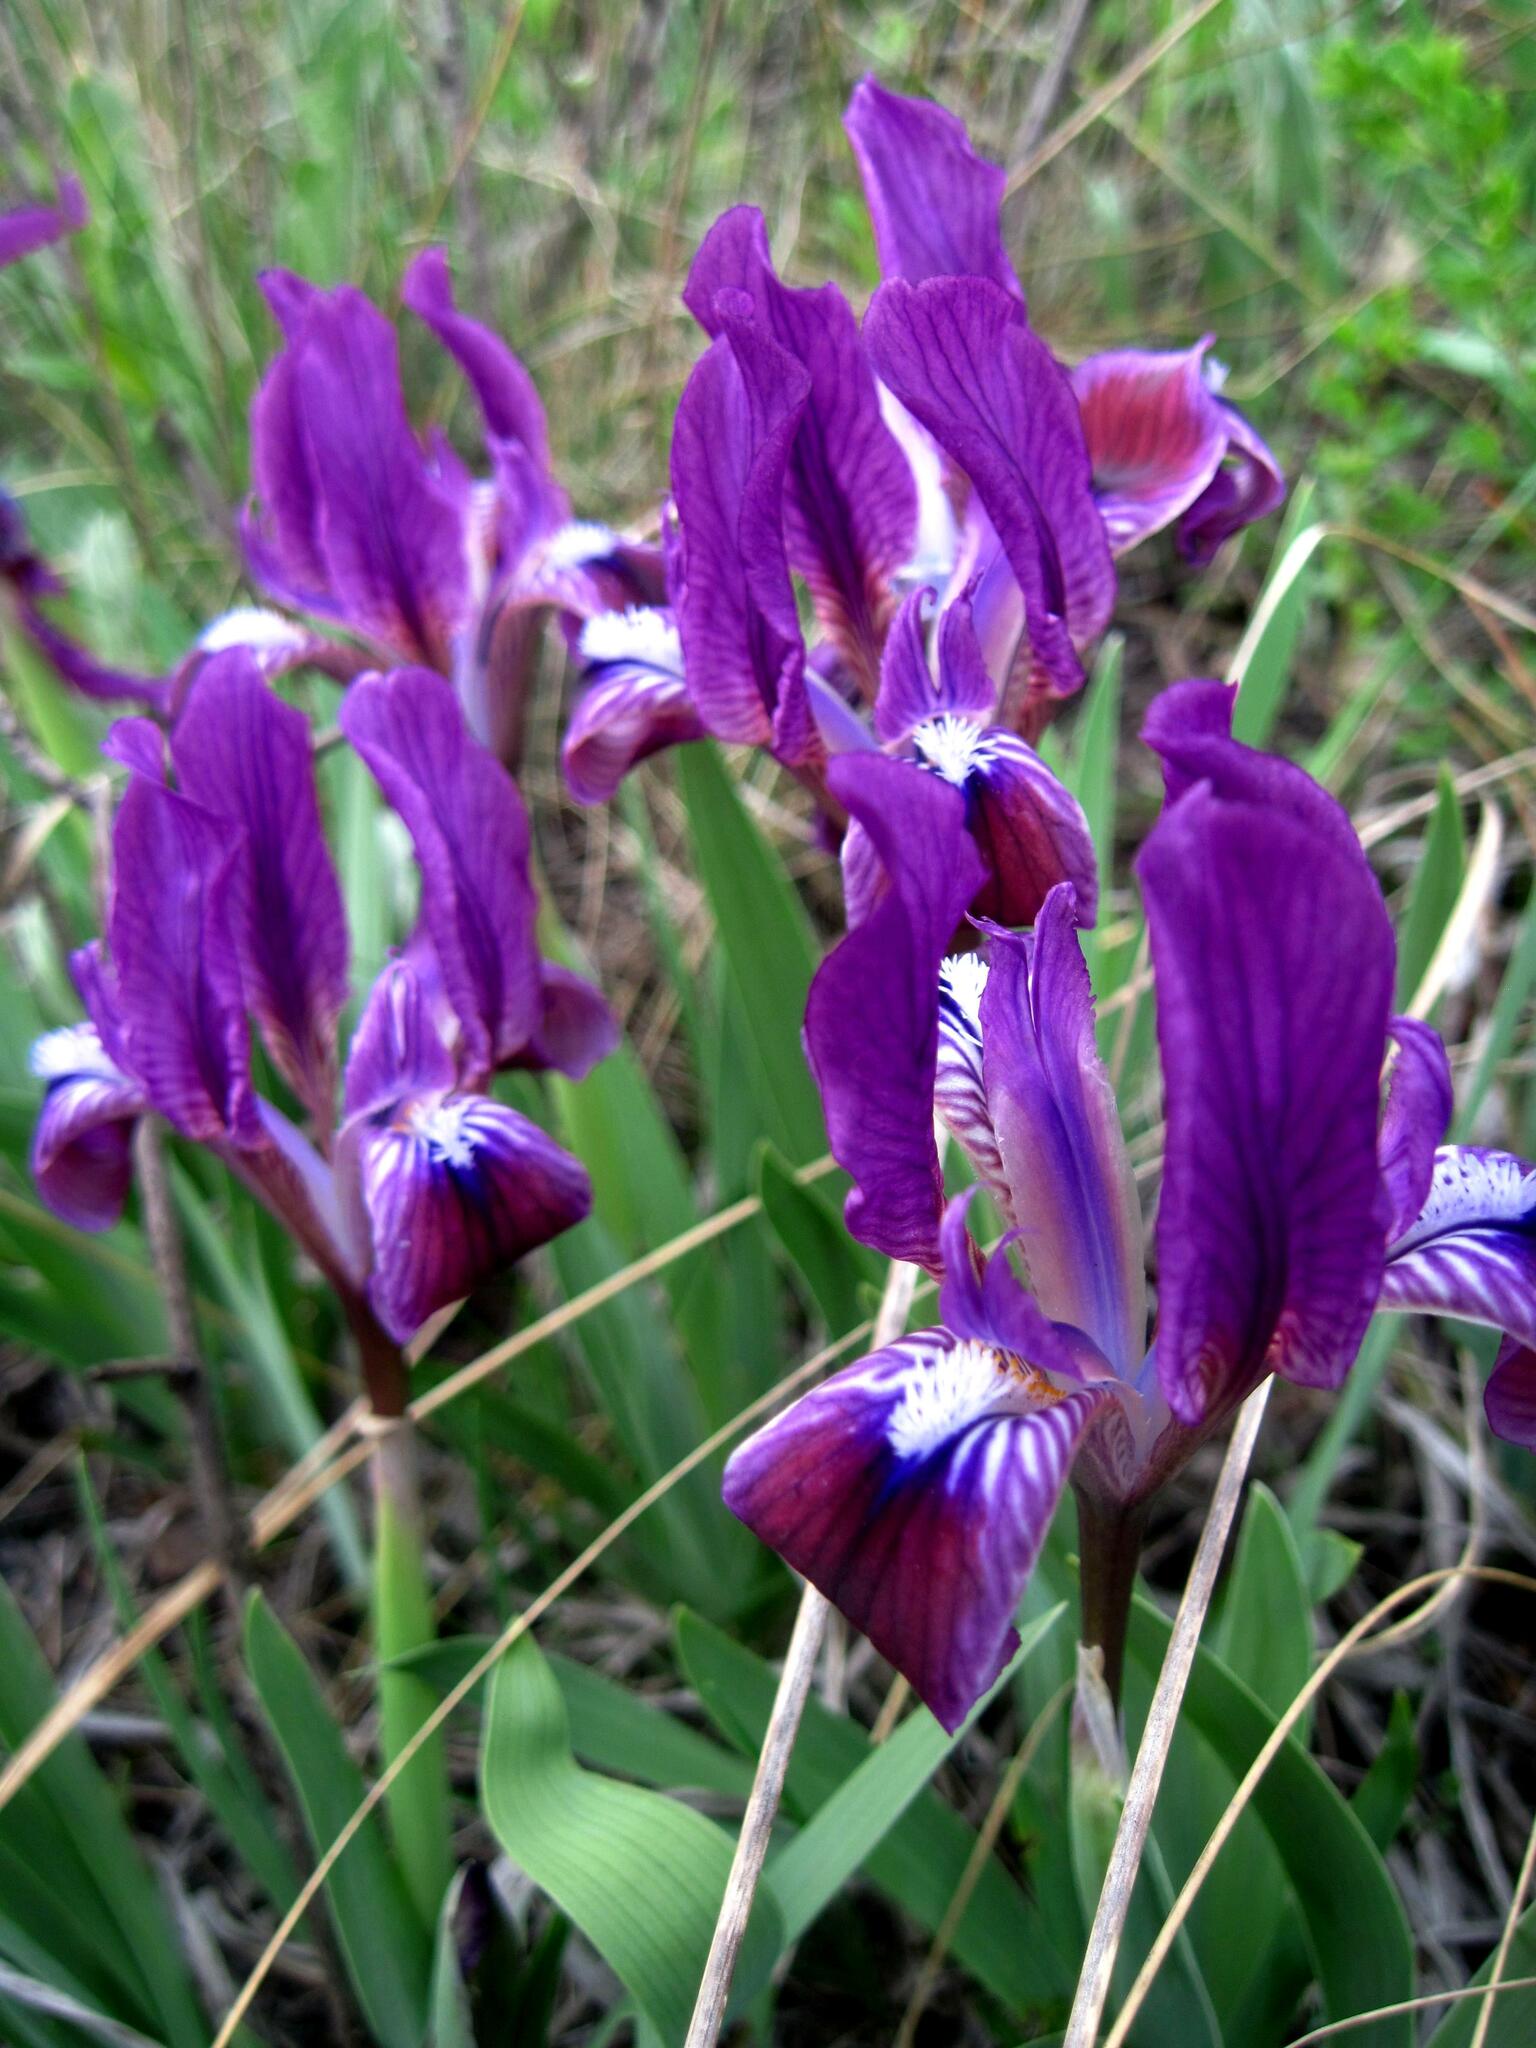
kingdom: Plantae
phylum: Tracheophyta
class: Liliopsida
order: Asparagales
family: Iridaceae
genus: Iris
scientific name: Iris pumila
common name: Dwarf iris
